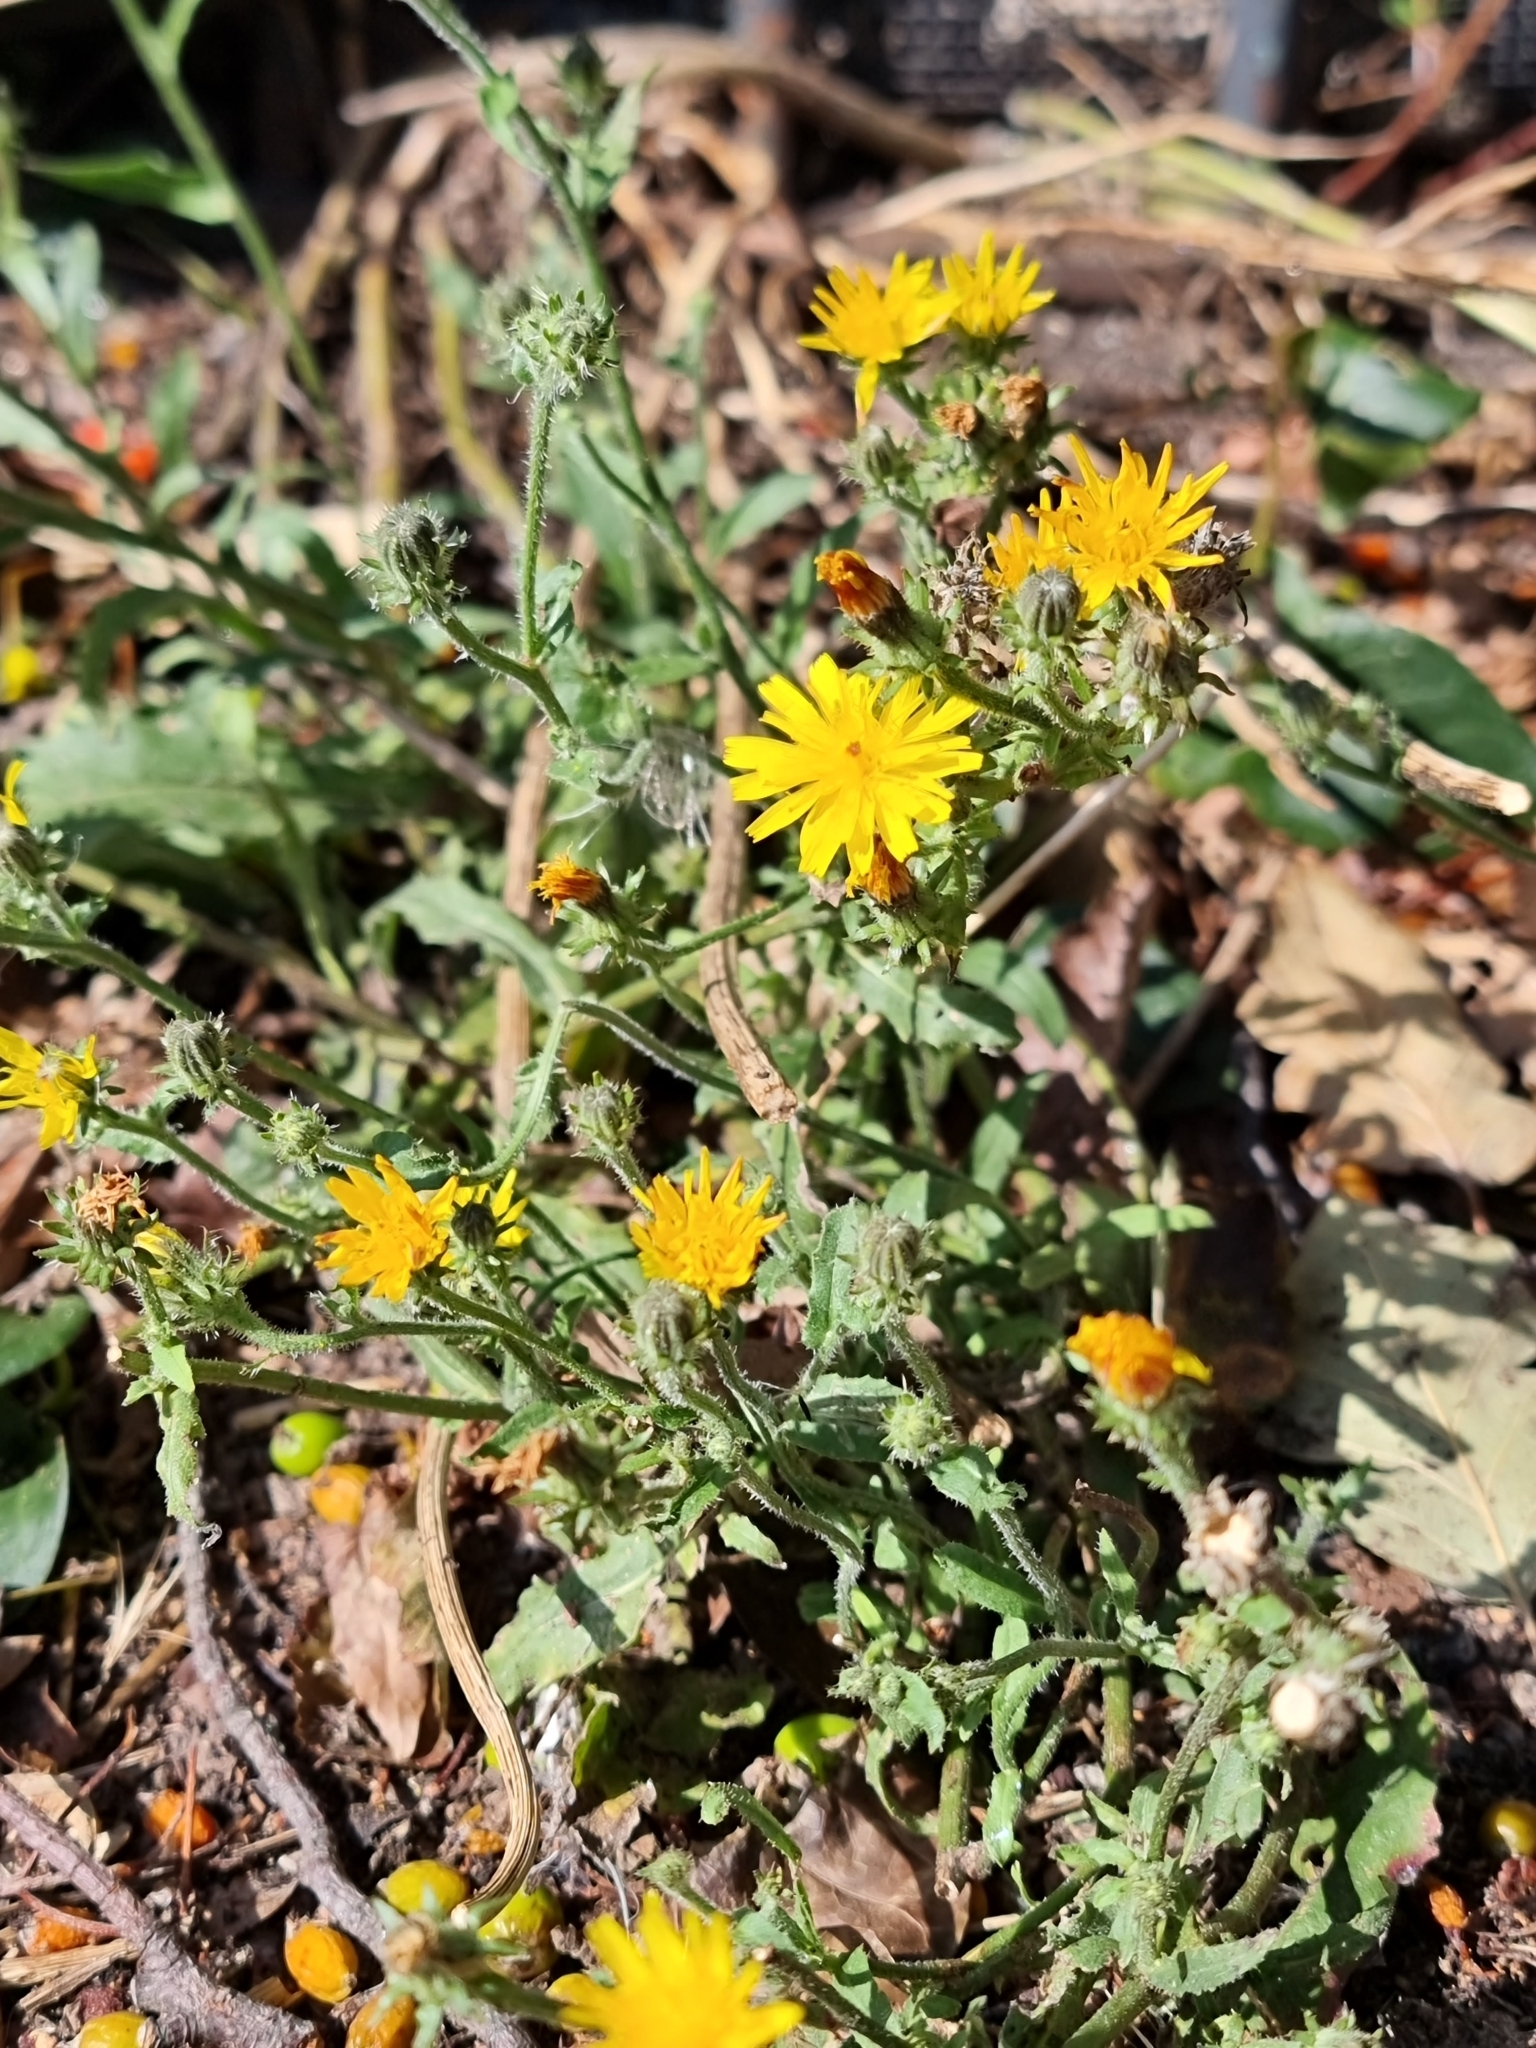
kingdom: Plantae
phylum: Tracheophyta
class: Magnoliopsida
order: Asterales
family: Asteraceae
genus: Picris
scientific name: Picris hieracioides
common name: Hawkweed oxtongue
